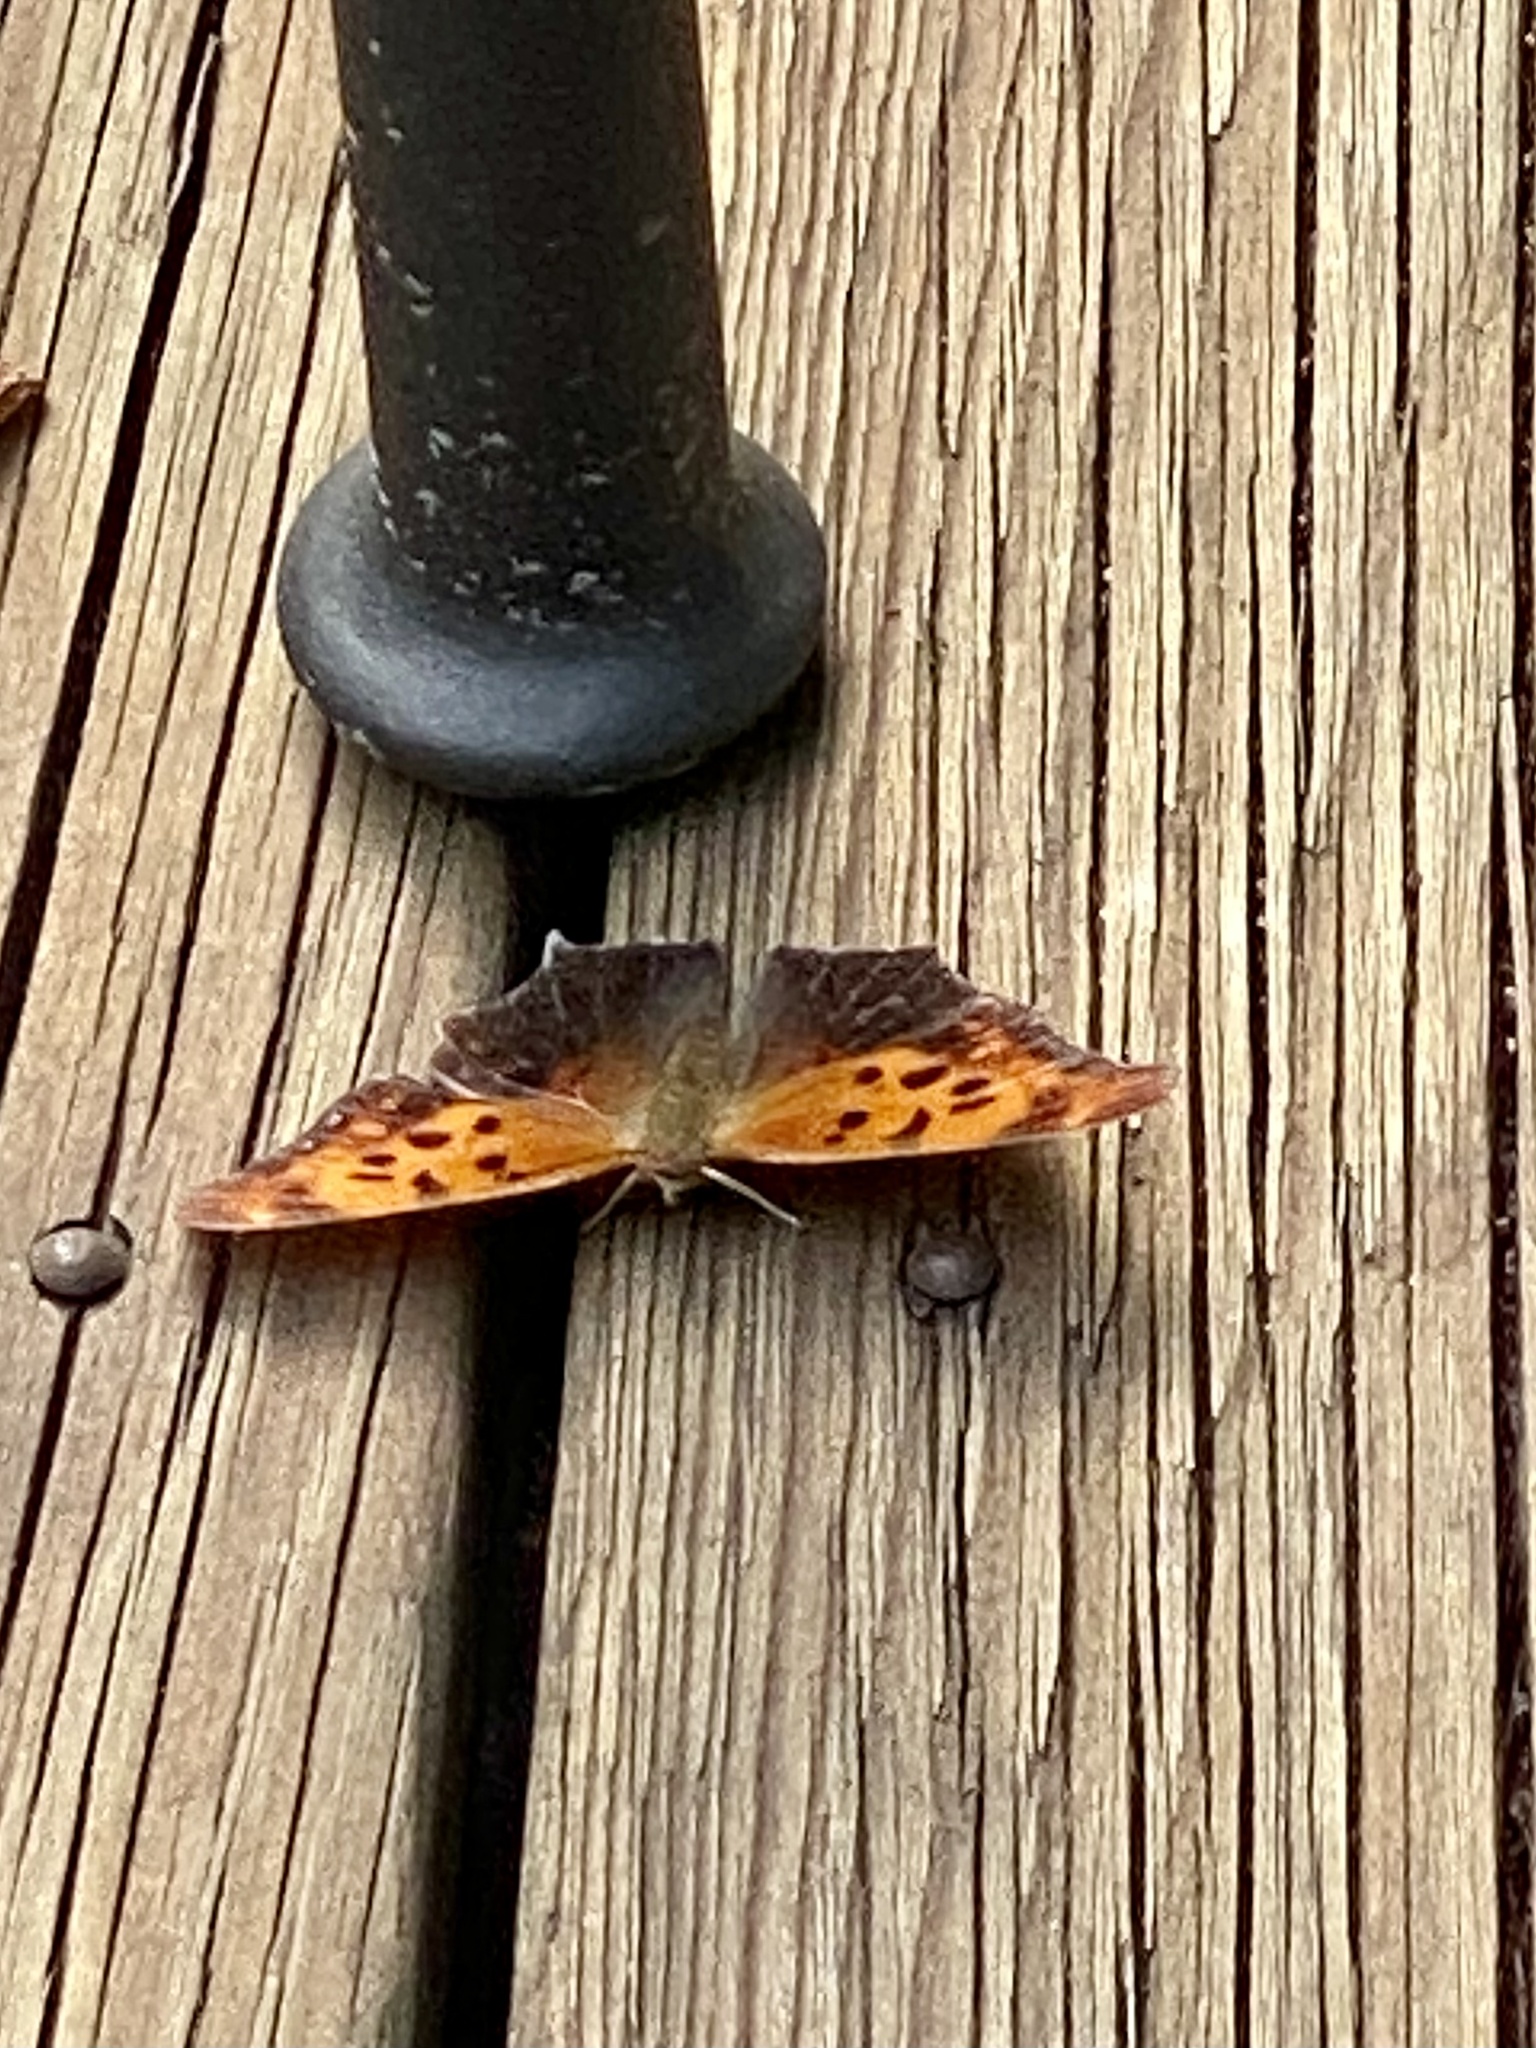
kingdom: Animalia
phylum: Arthropoda
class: Insecta
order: Lepidoptera
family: Nymphalidae
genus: Polygonia
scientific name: Polygonia interrogationis
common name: Question mark
